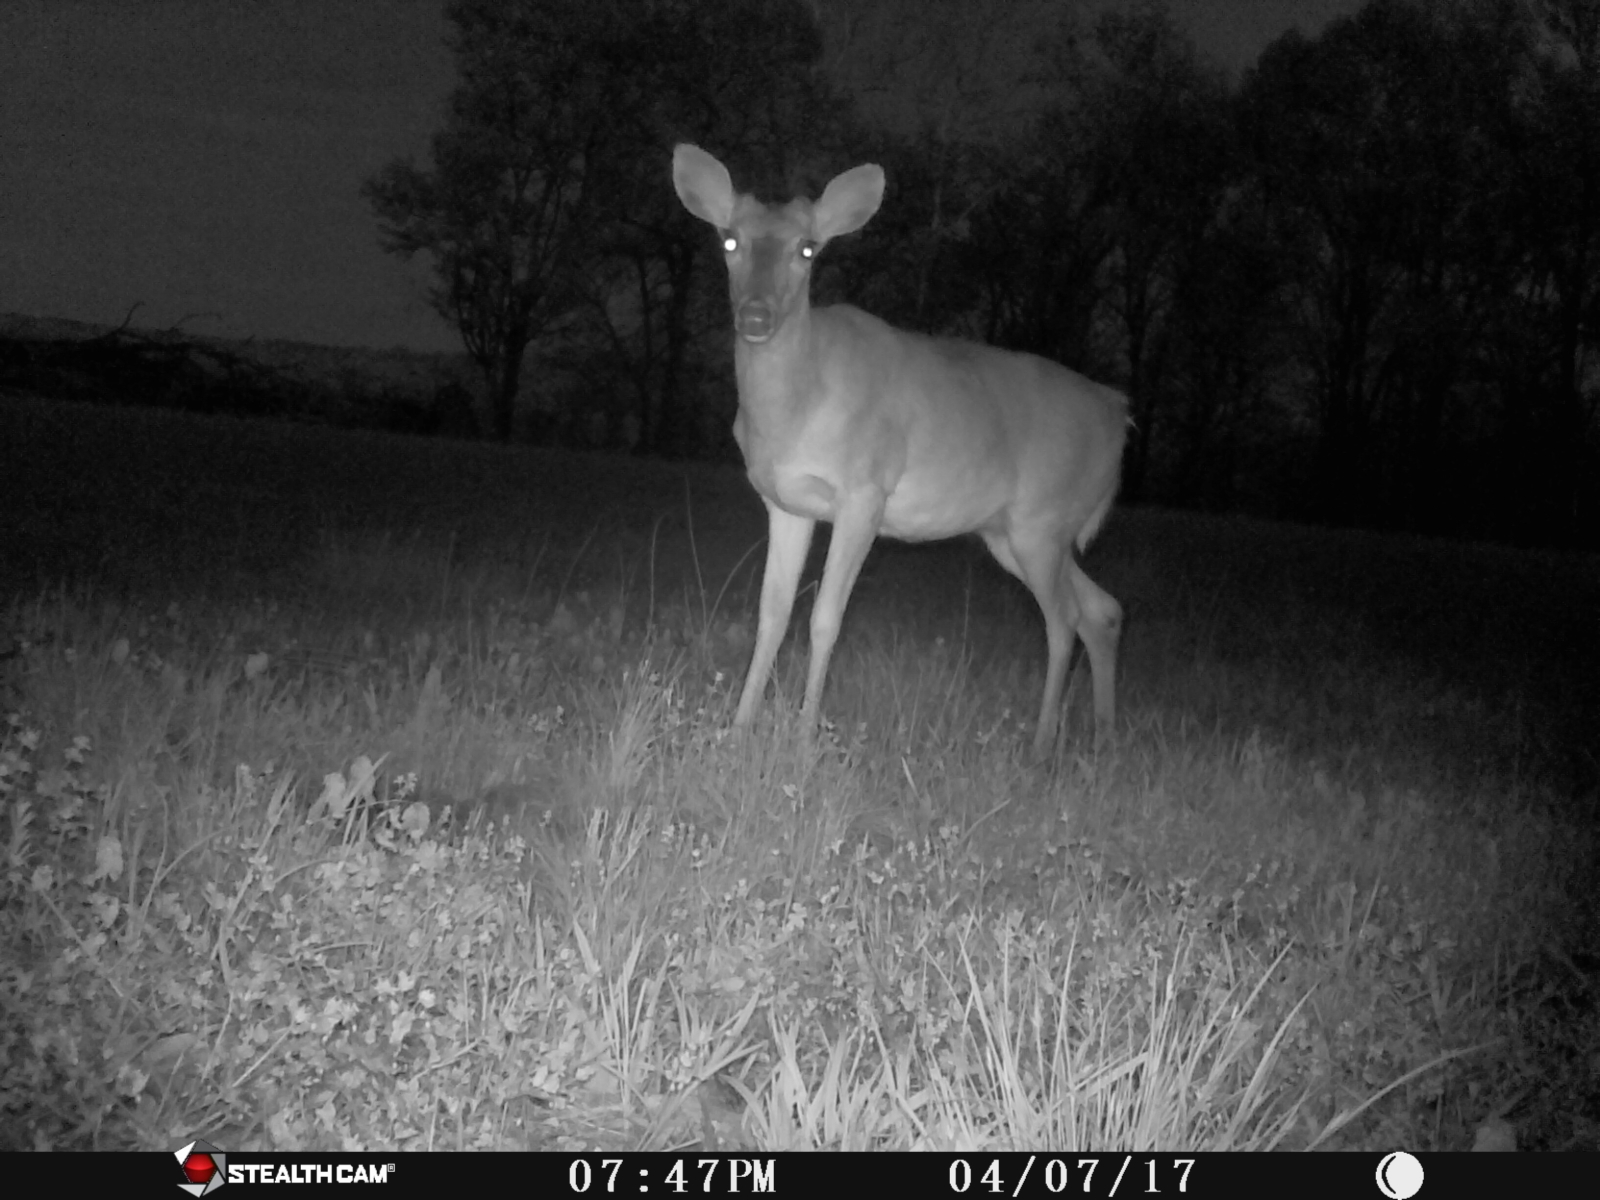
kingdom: Animalia
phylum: Chordata
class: Mammalia
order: Artiodactyla
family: Cervidae
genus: Odocoileus
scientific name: Odocoileus virginianus
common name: White-tailed deer
